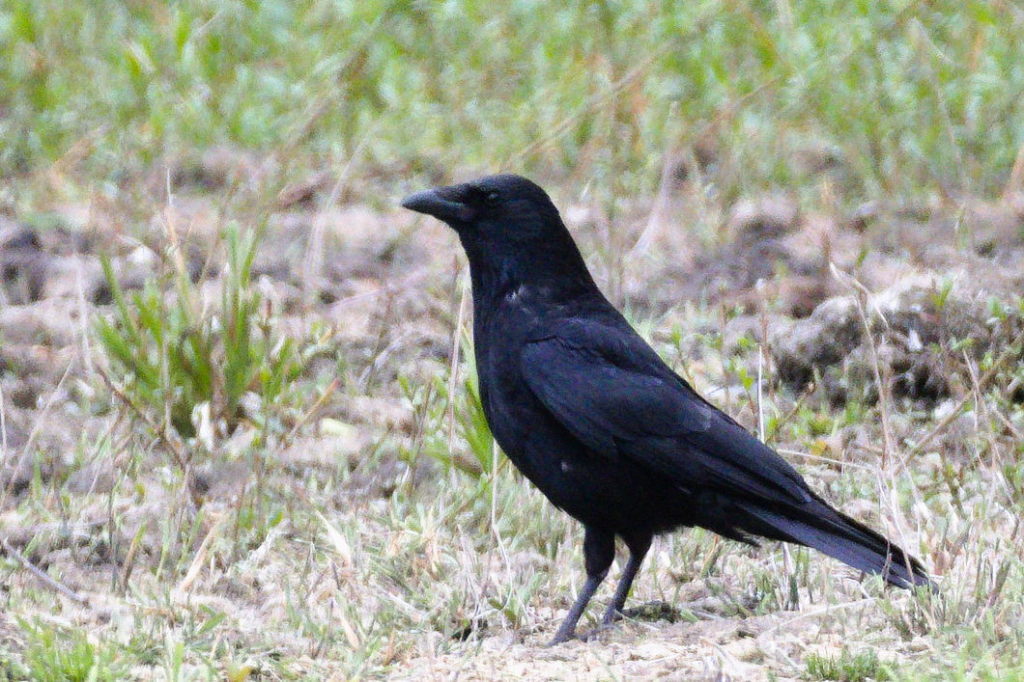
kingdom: Animalia
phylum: Chordata
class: Aves
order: Passeriformes
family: Corvidae
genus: Corvus
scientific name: Corvus corone
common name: Carrion crow
